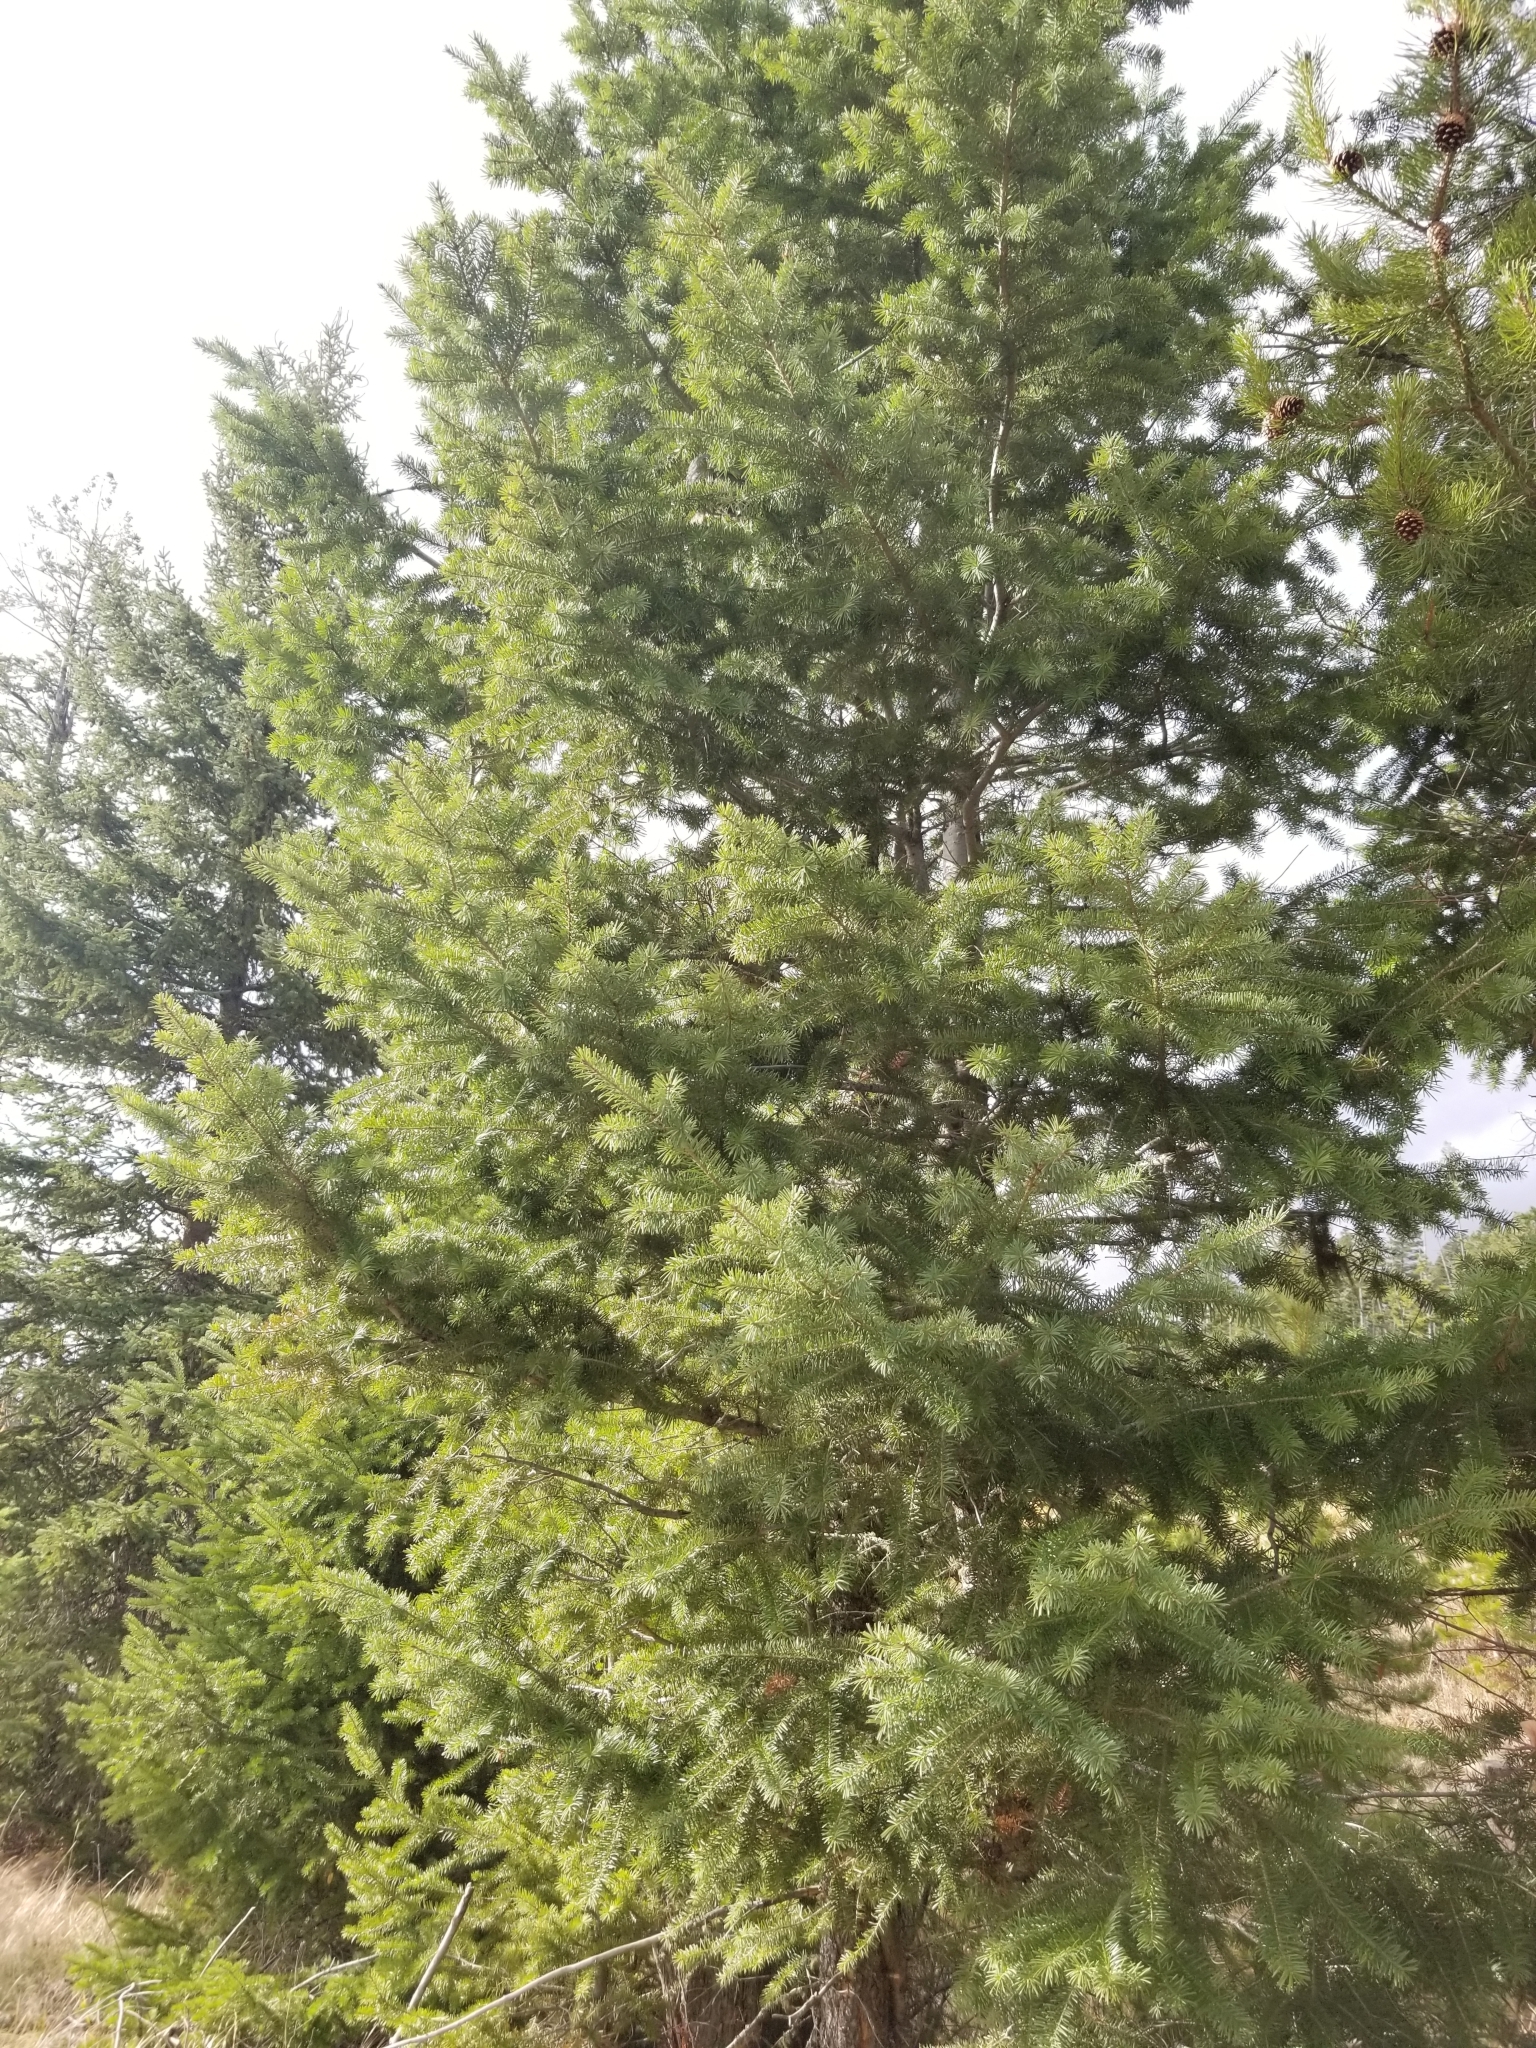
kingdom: Plantae
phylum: Tracheophyta
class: Pinopsida
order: Pinales
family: Pinaceae
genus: Pseudotsuga
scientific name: Pseudotsuga menziesii
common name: Douglas fir
